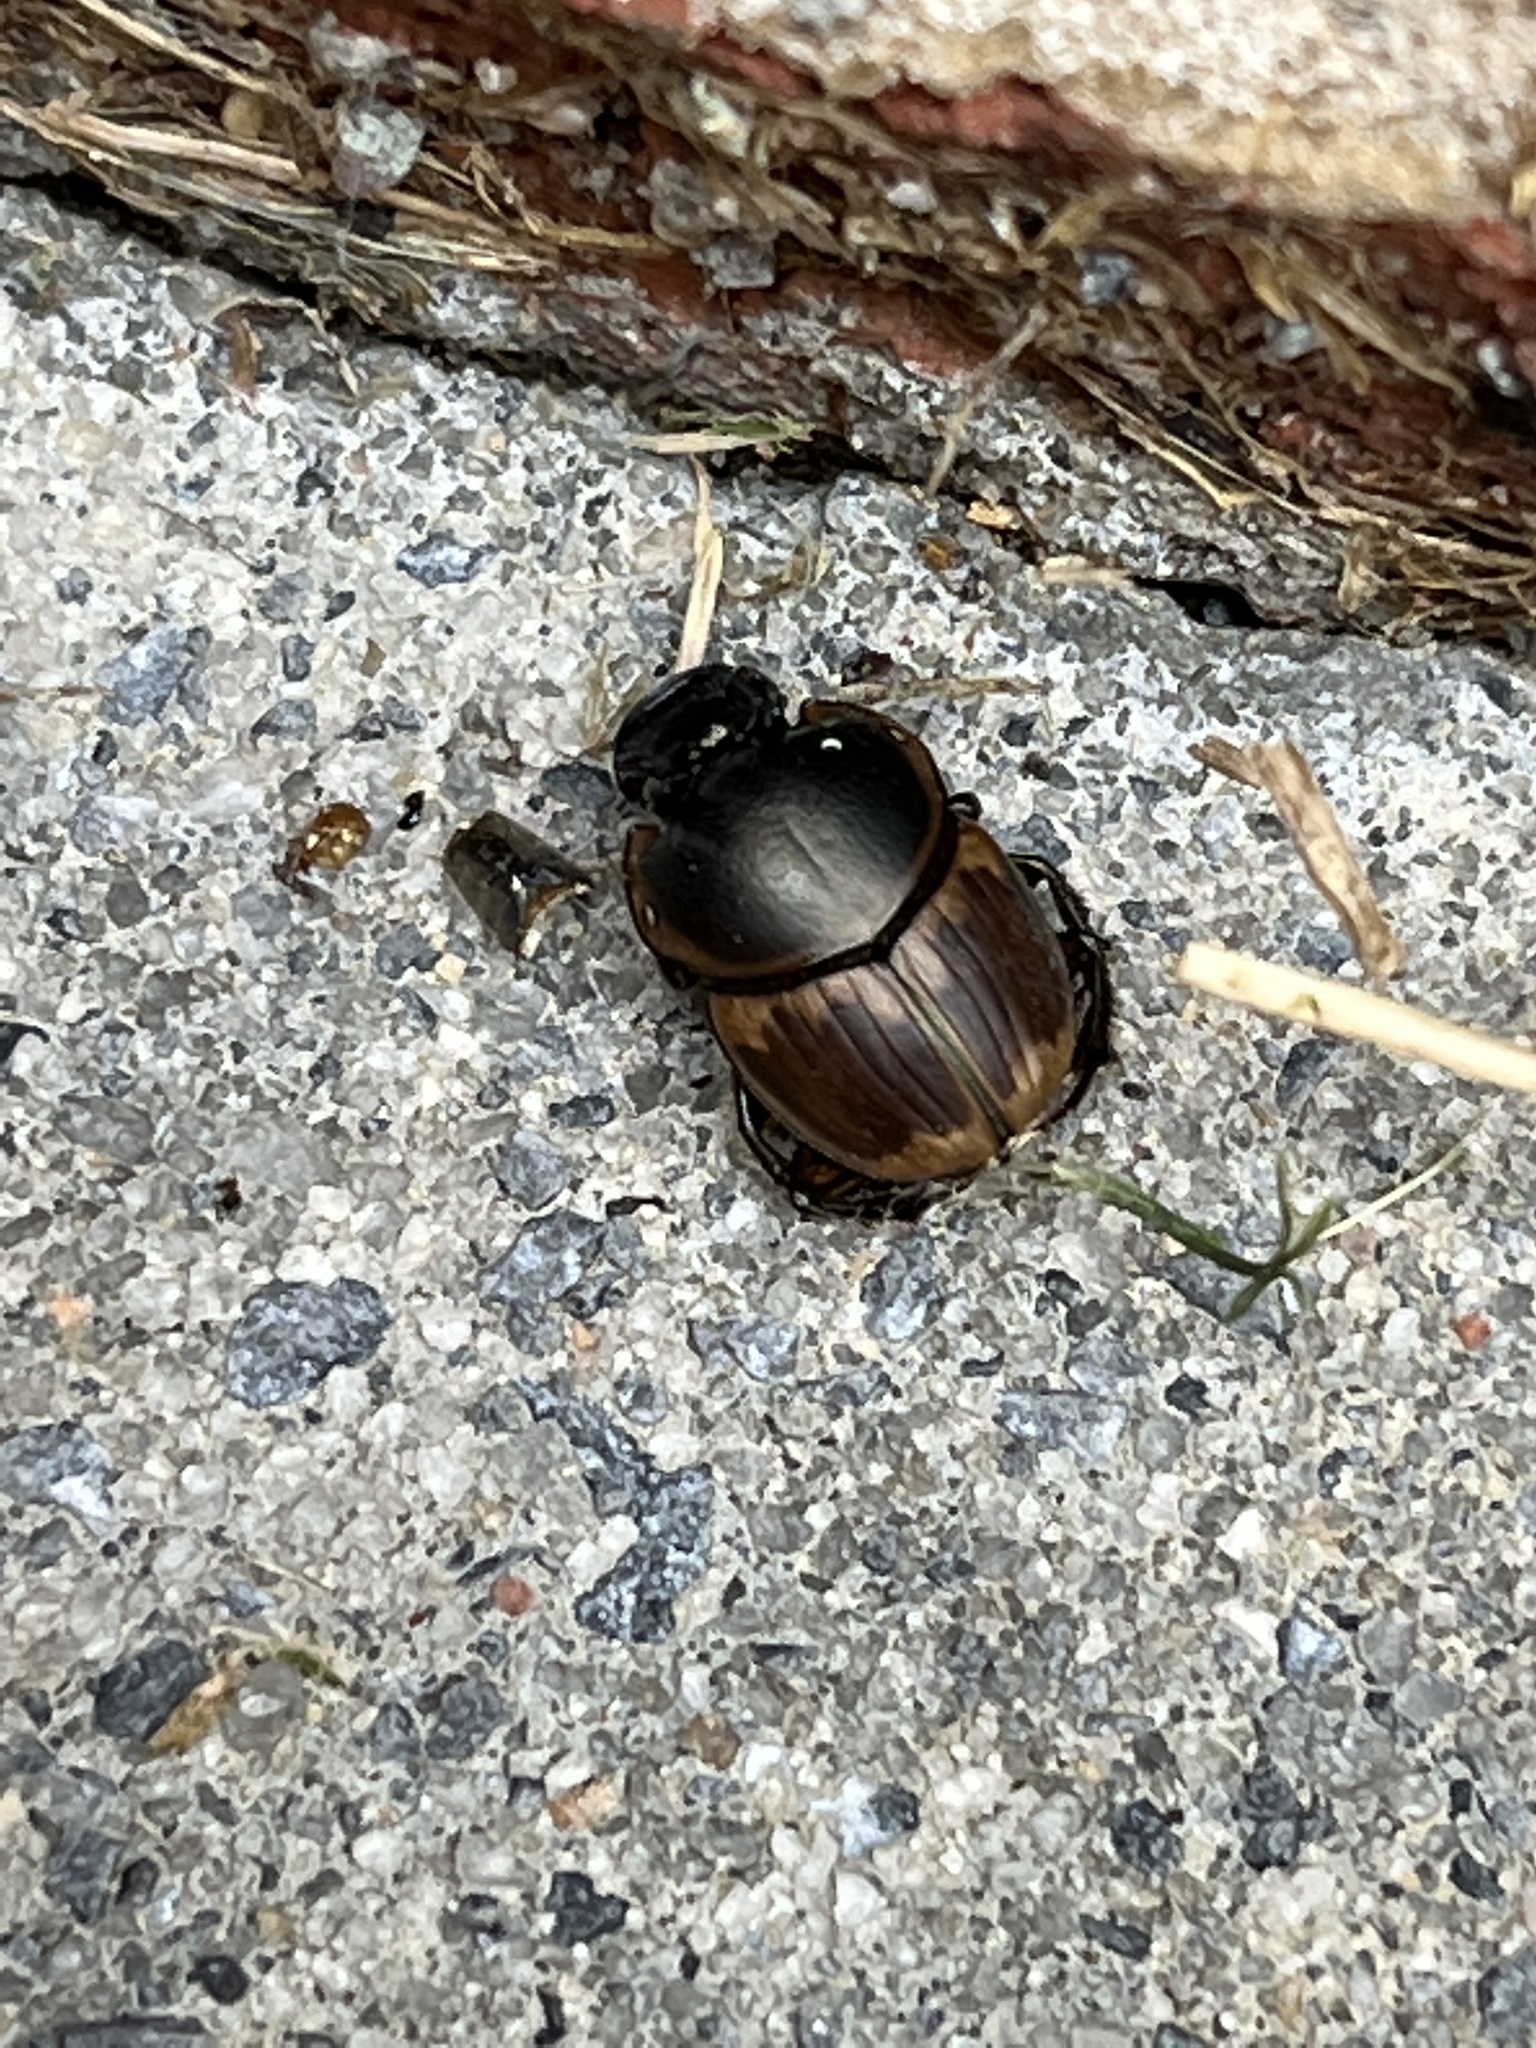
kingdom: Animalia
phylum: Arthropoda
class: Insecta
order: Coleoptera
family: Scarabaeidae
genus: Digitonthophagus
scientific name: Digitonthophagus gazella
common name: Brown dung beetle
